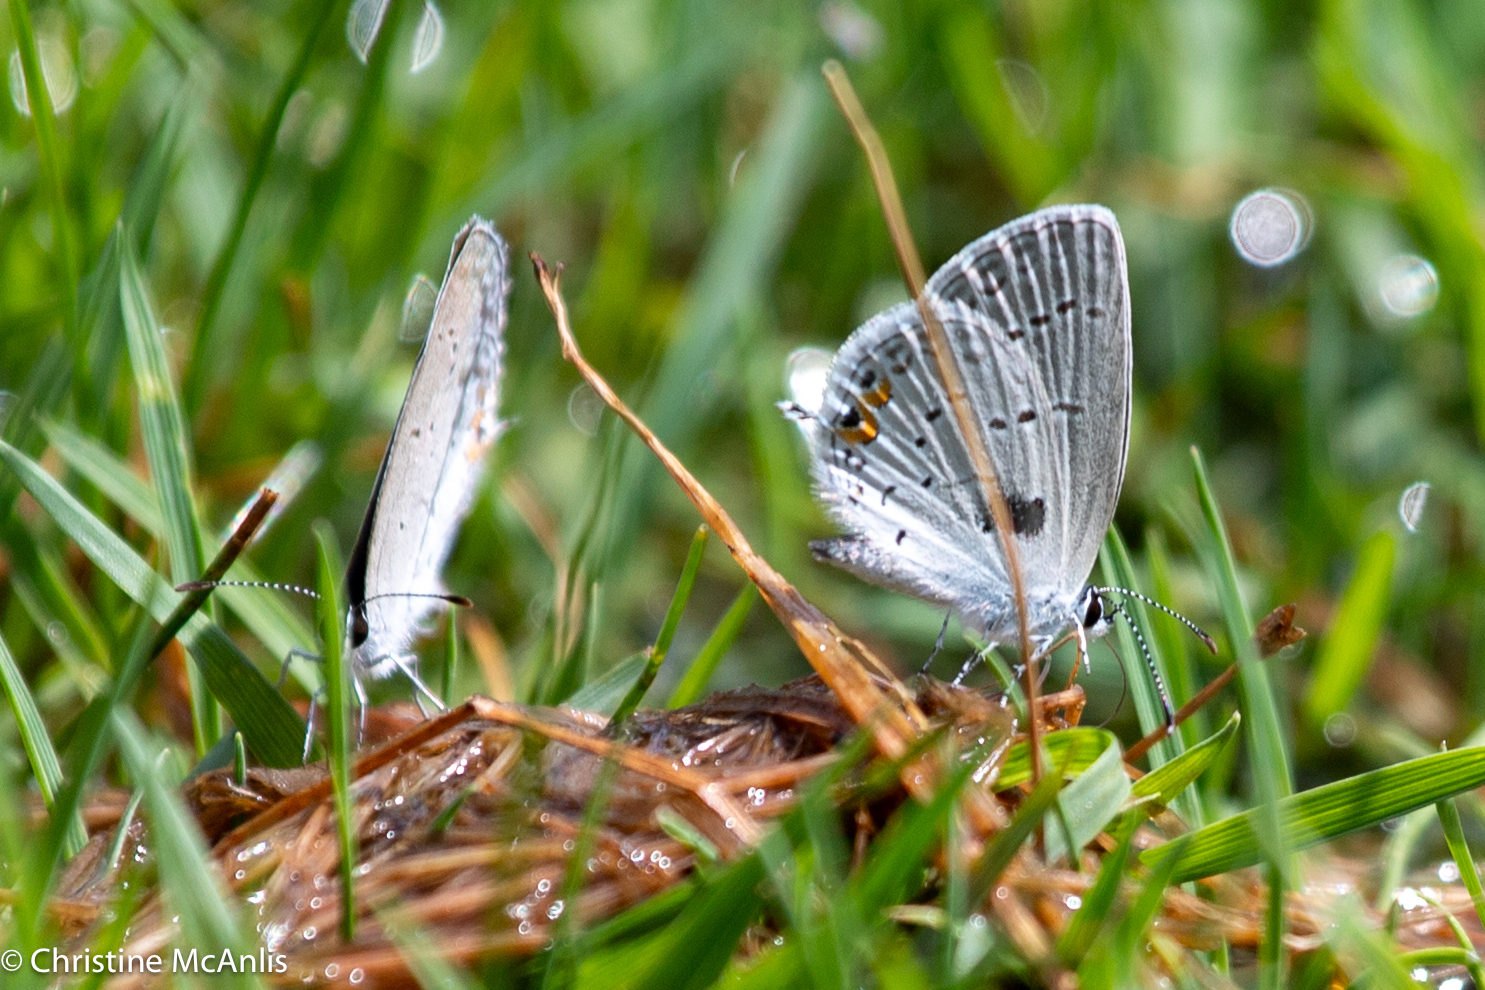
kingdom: Animalia
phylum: Arthropoda
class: Insecta
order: Lepidoptera
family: Lycaenidae
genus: Elkalyce
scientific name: Elkalyce comyntas
